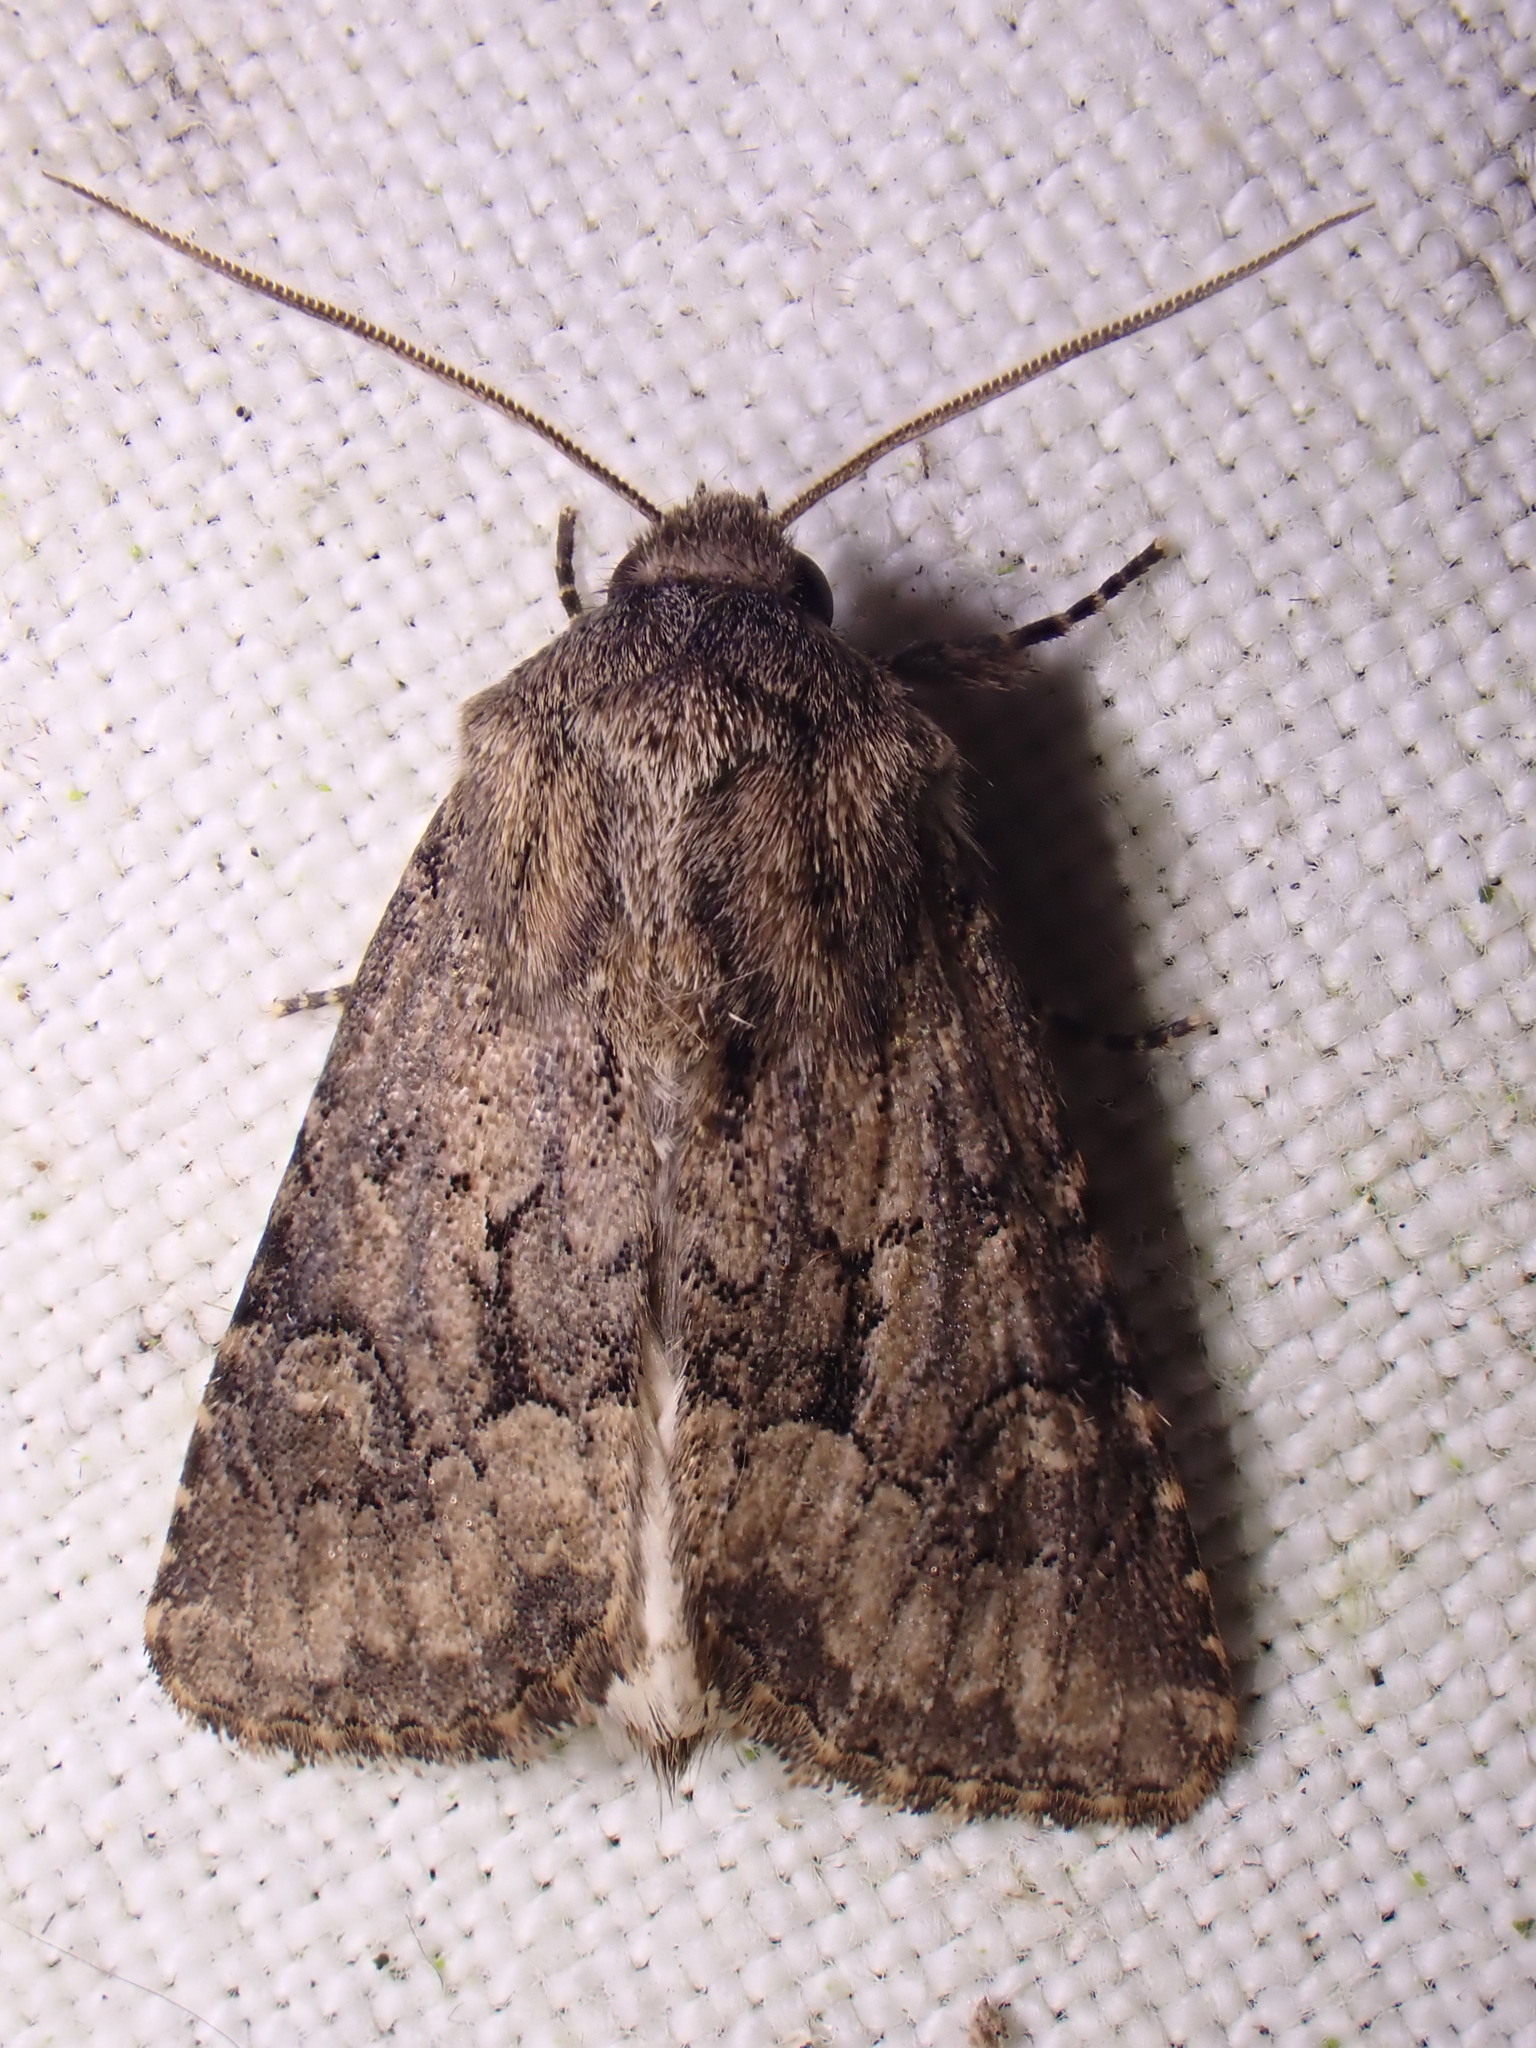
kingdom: Animalia
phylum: Arthropoda
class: Insecta
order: Lepidoptera
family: Noctuidae
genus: Luperina
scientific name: Luperina testacea
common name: Flounced rustic
